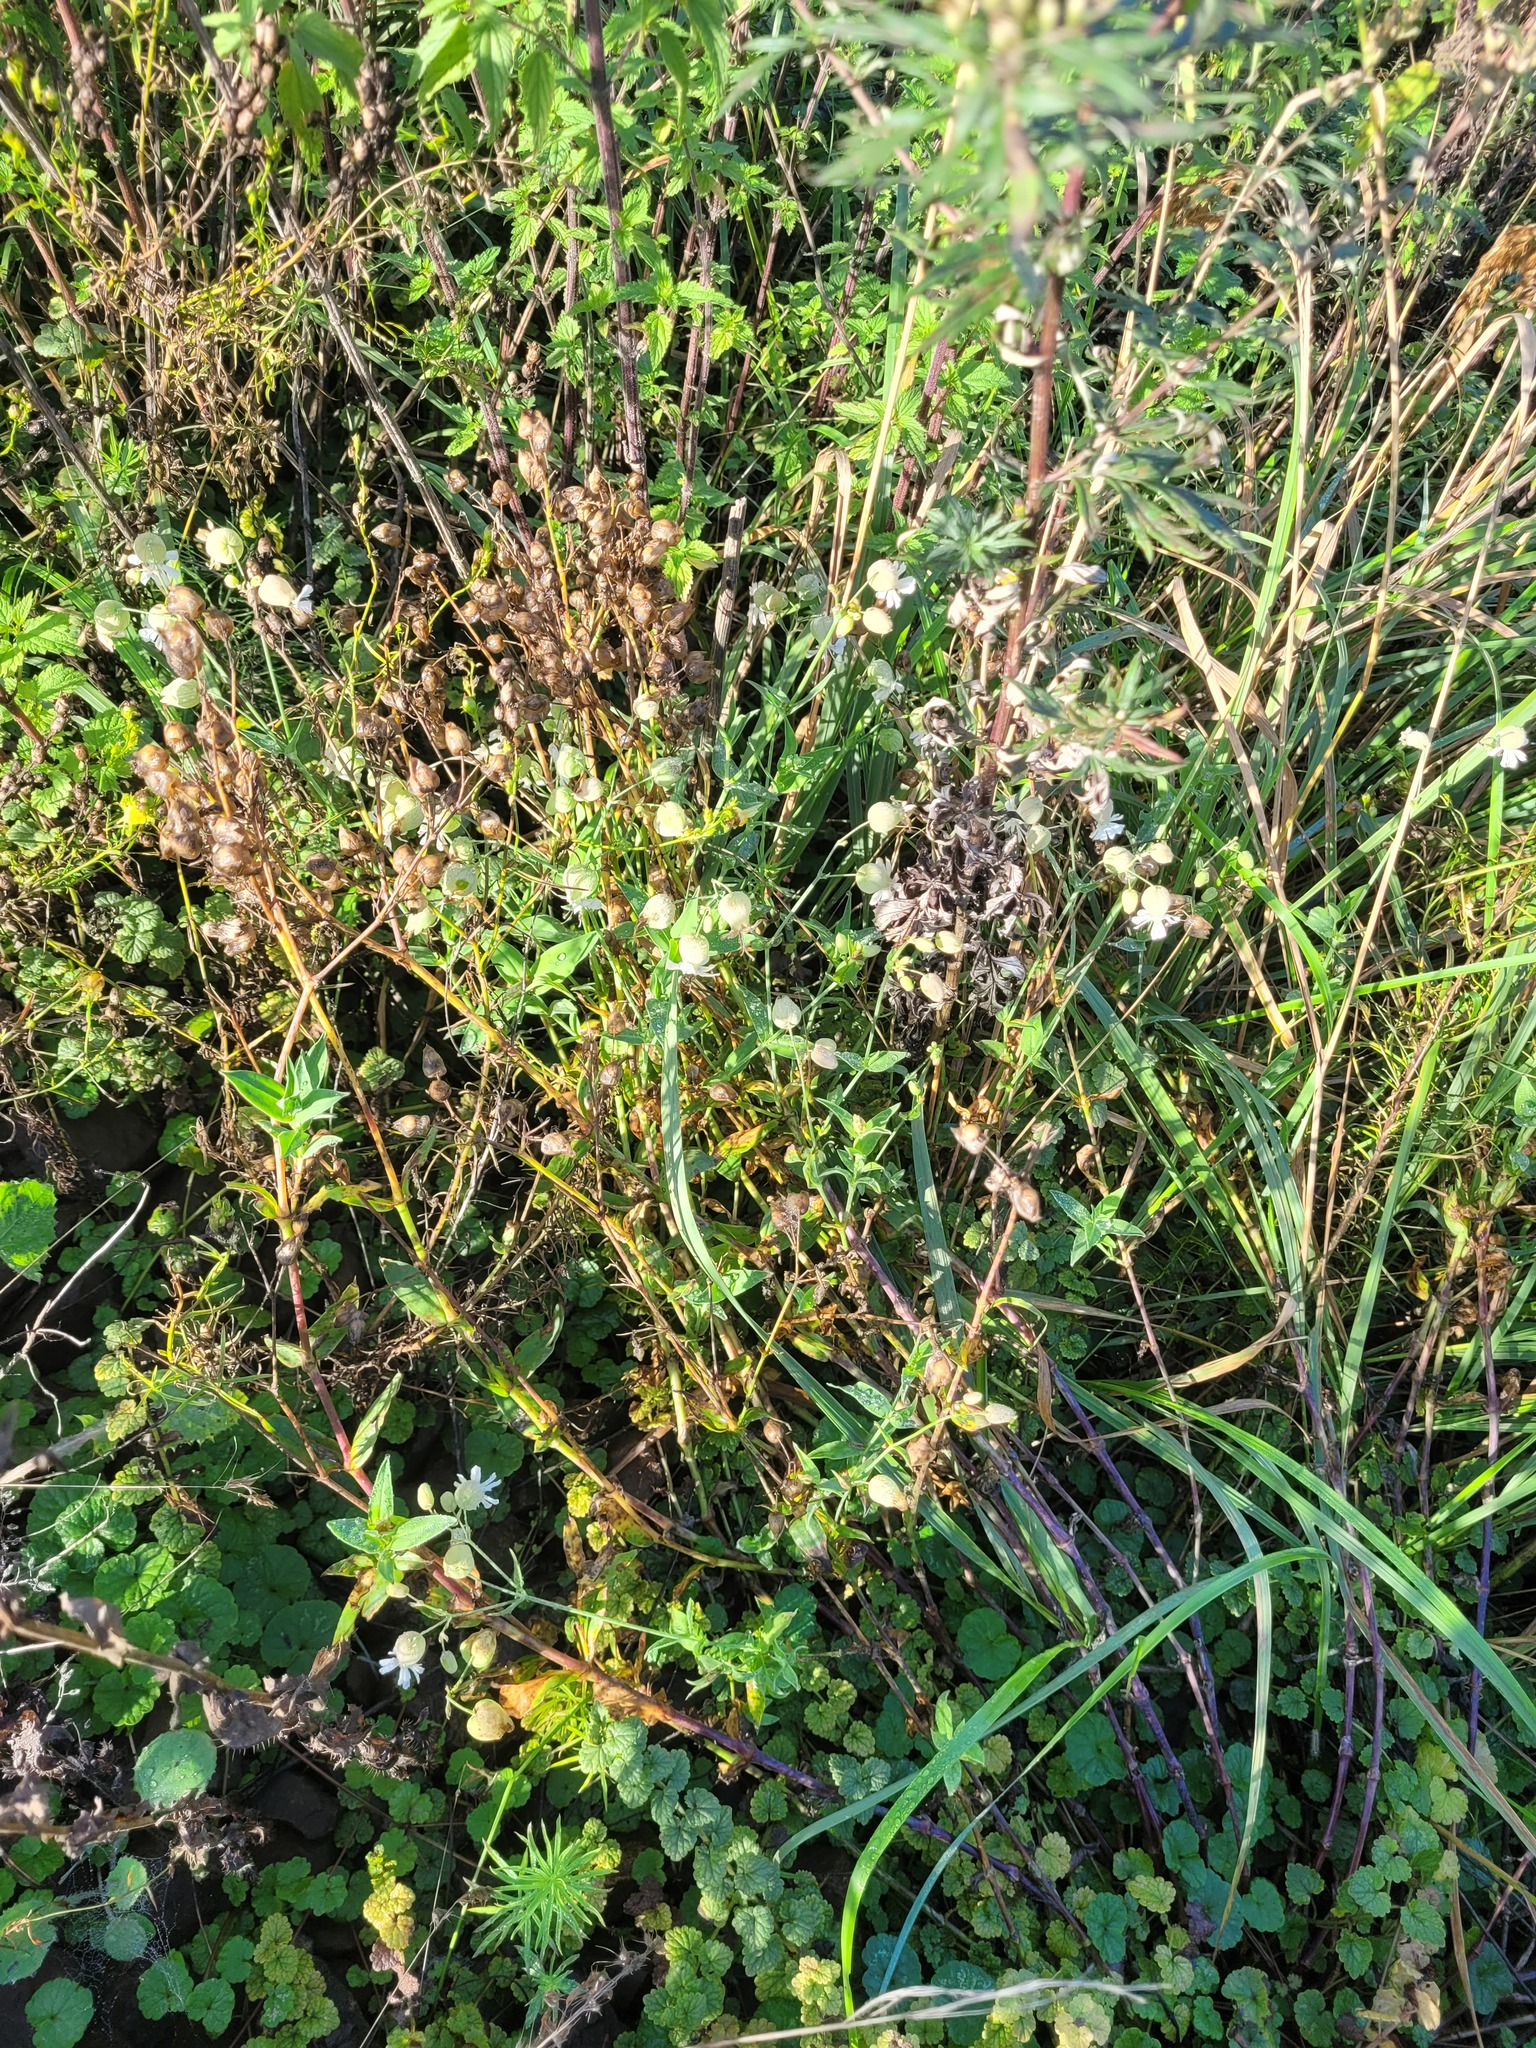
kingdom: Plantae
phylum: Tracheophyta
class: Magnoliopsida
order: Caryophyllales
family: Caryophyllaceae
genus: Silene
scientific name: Silene vulgaris
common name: Bladder campion
